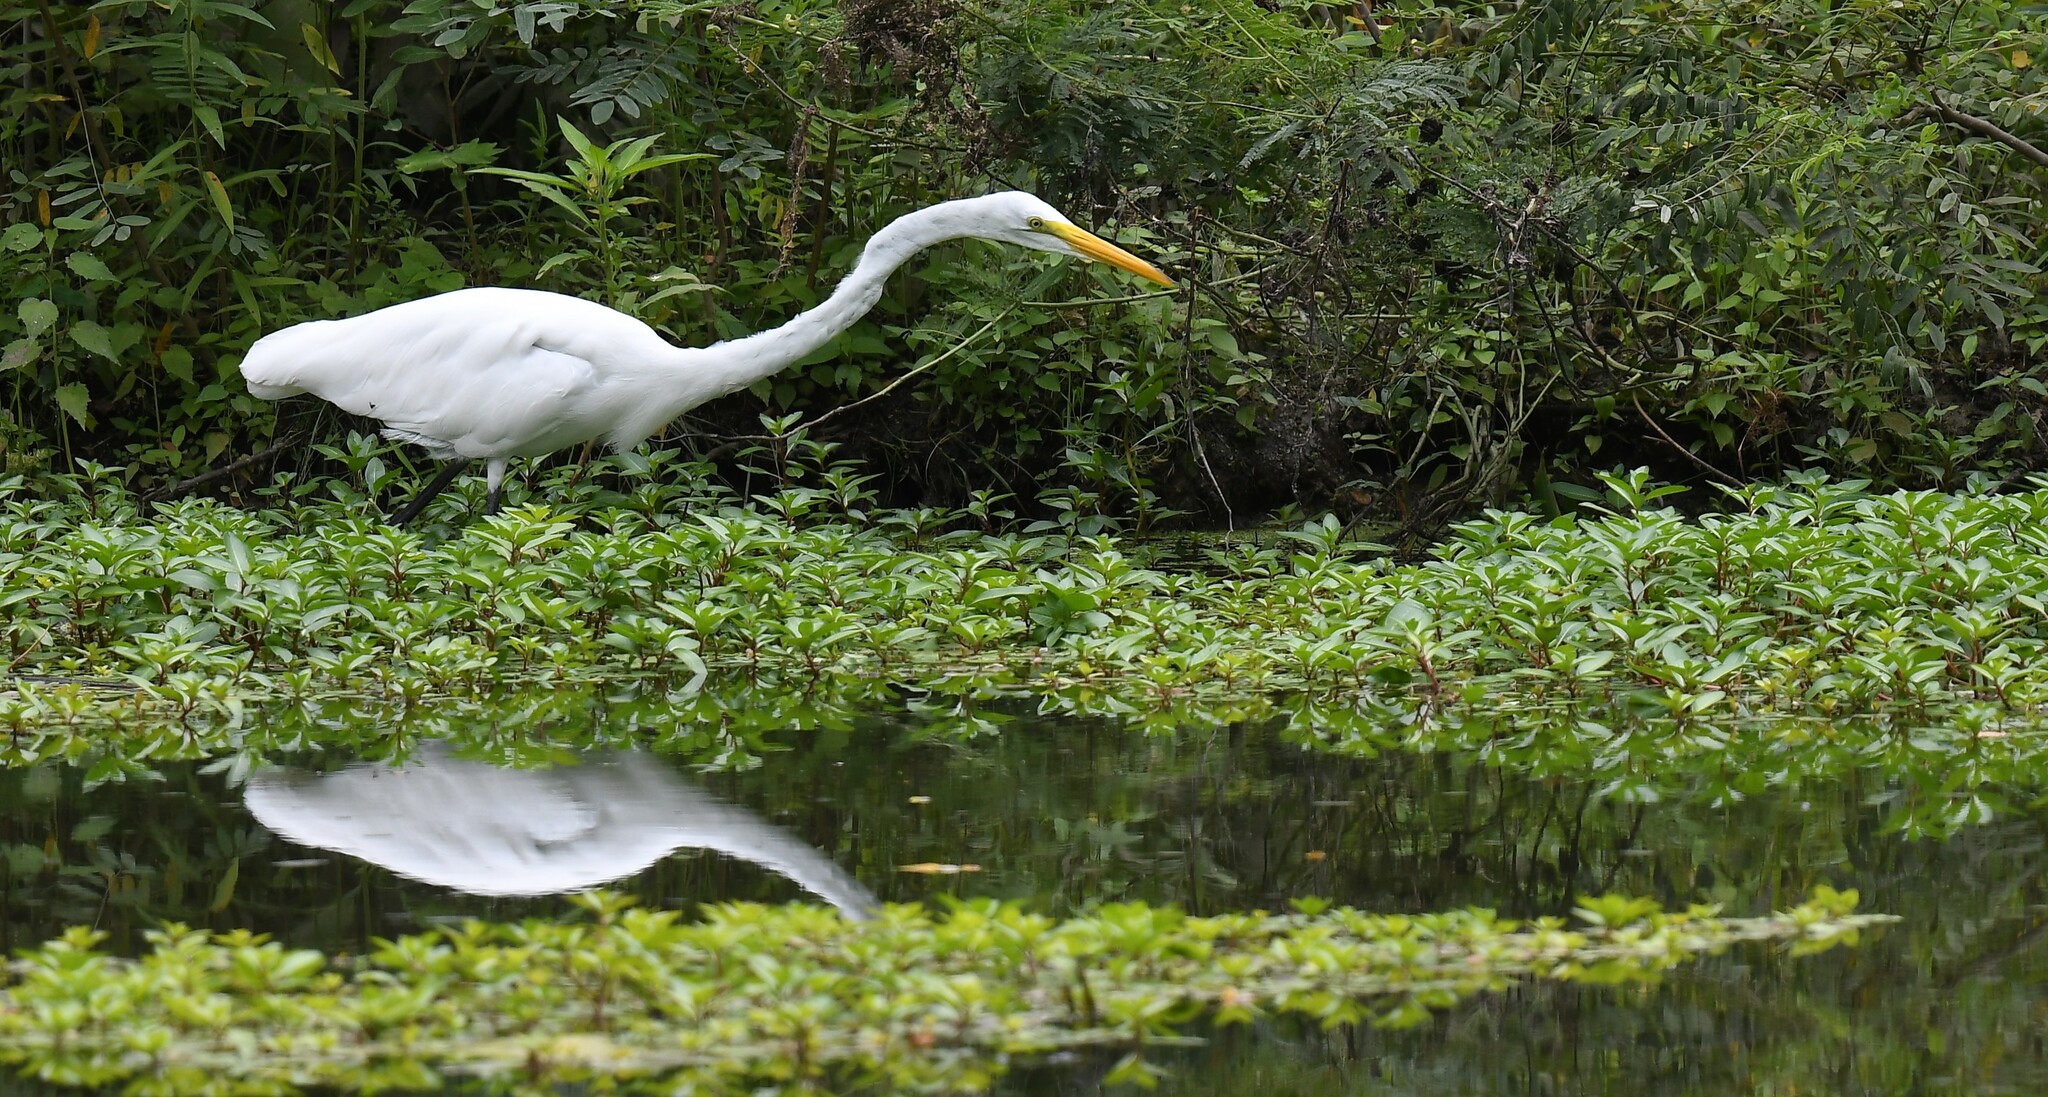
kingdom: Animalia
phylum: Chordata
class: Aves
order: Pelecaniformes
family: Ardeidae
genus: Ardea
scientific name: Ardea alba
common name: Great egret
